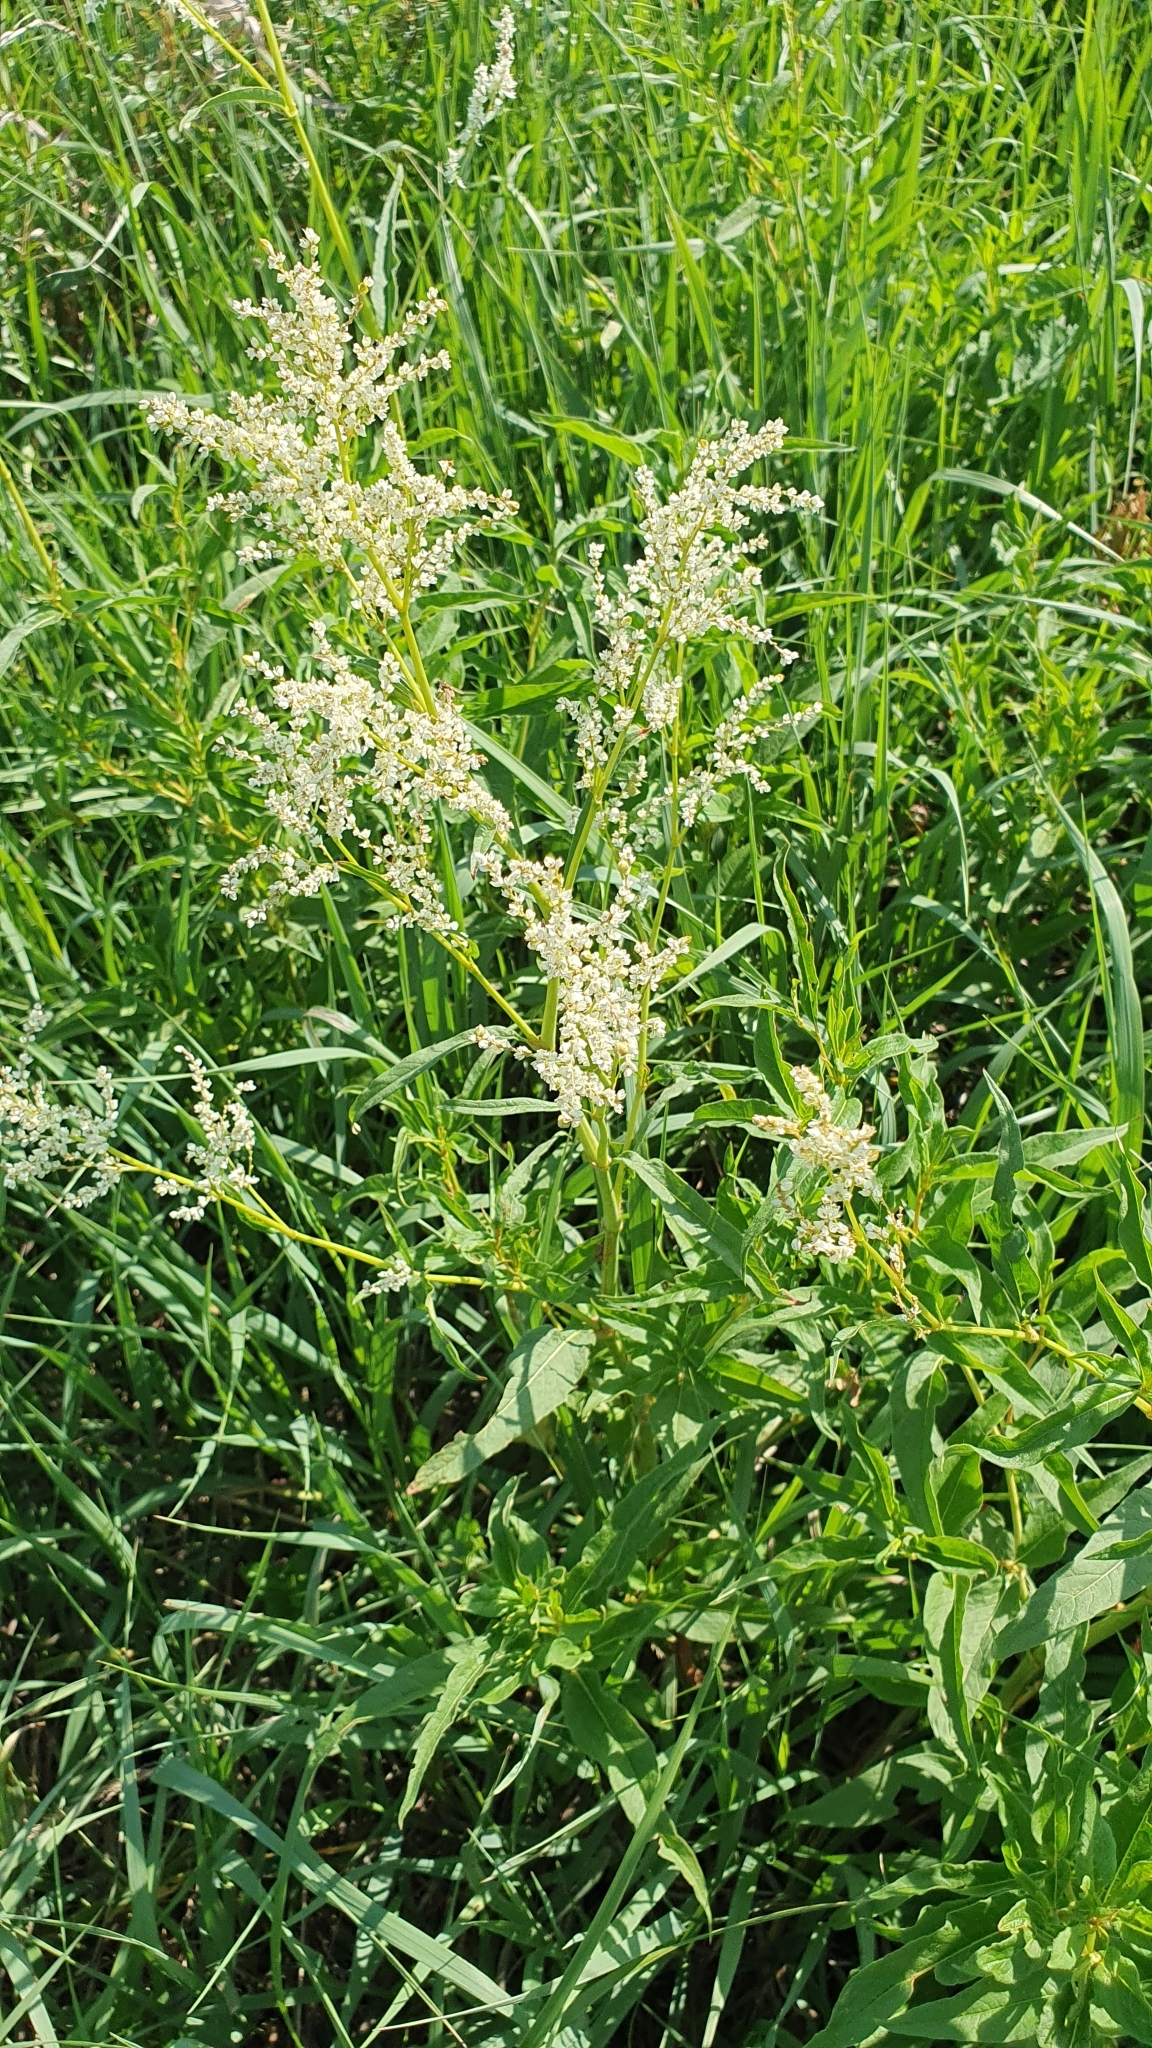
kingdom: Plantae
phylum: Tracheophyta
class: Magnoliopsida
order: Caryophyllales
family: Polygonaceae
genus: Koenigia
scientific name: Koenigia alpina
